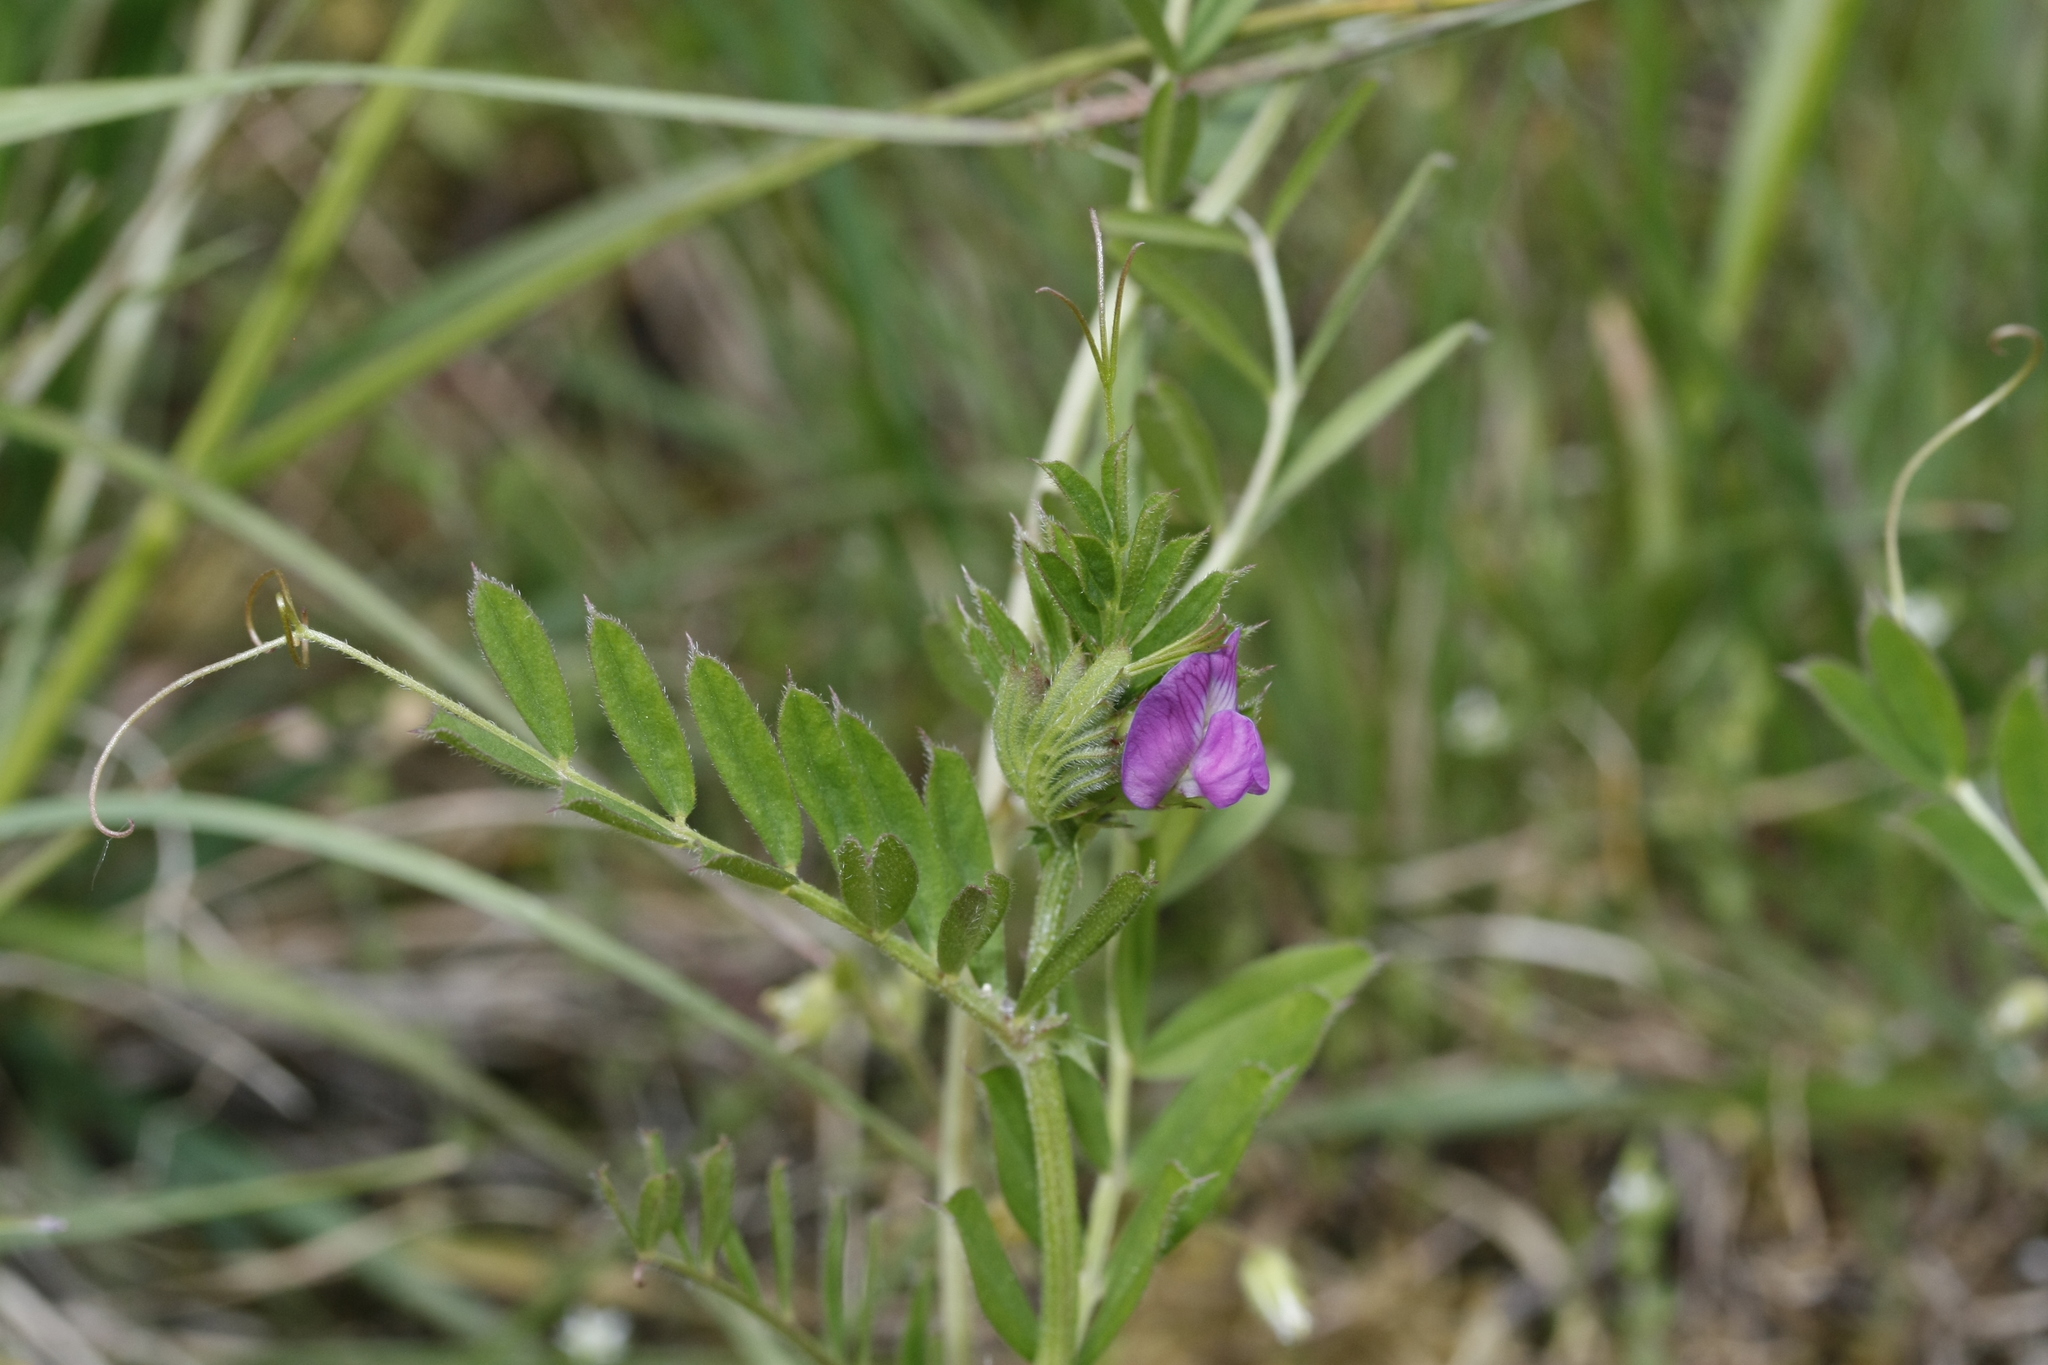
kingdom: Plantae
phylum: Tracheophyta
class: Magnoliopsida
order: Fabales
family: Fabaceae
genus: Vicia
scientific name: Vicia sativa
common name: Garden vetch
